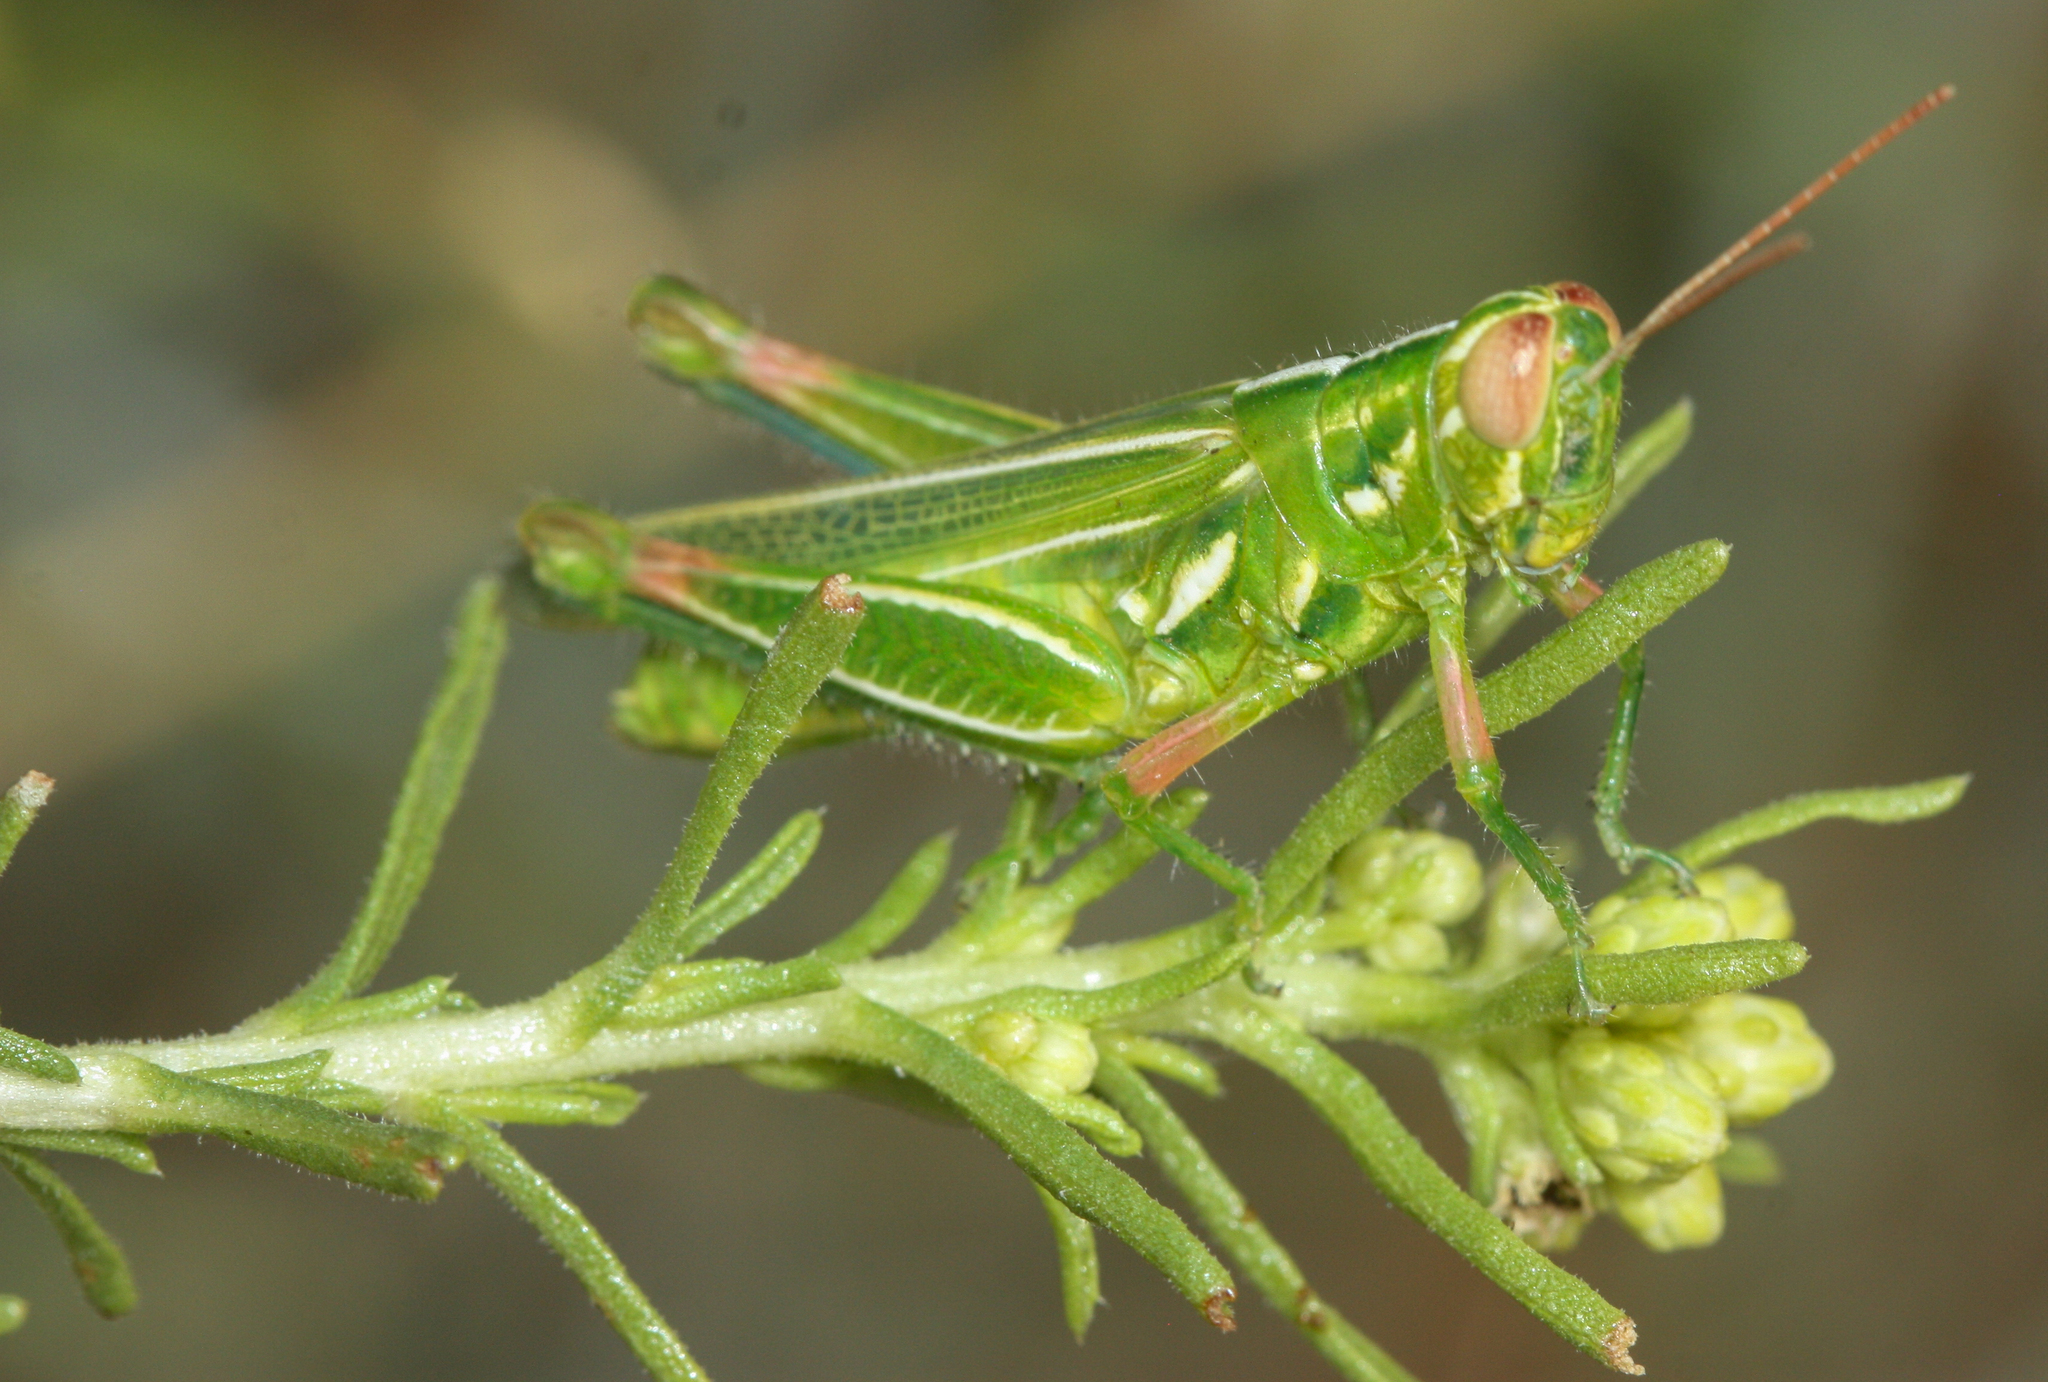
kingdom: Animalia
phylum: Arthropoda
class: Insecta
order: Orthoptera
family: Acrididae
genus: Hesperotettix
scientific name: Hesperotettix viridis
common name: Meadow purple-striped grasshopper
